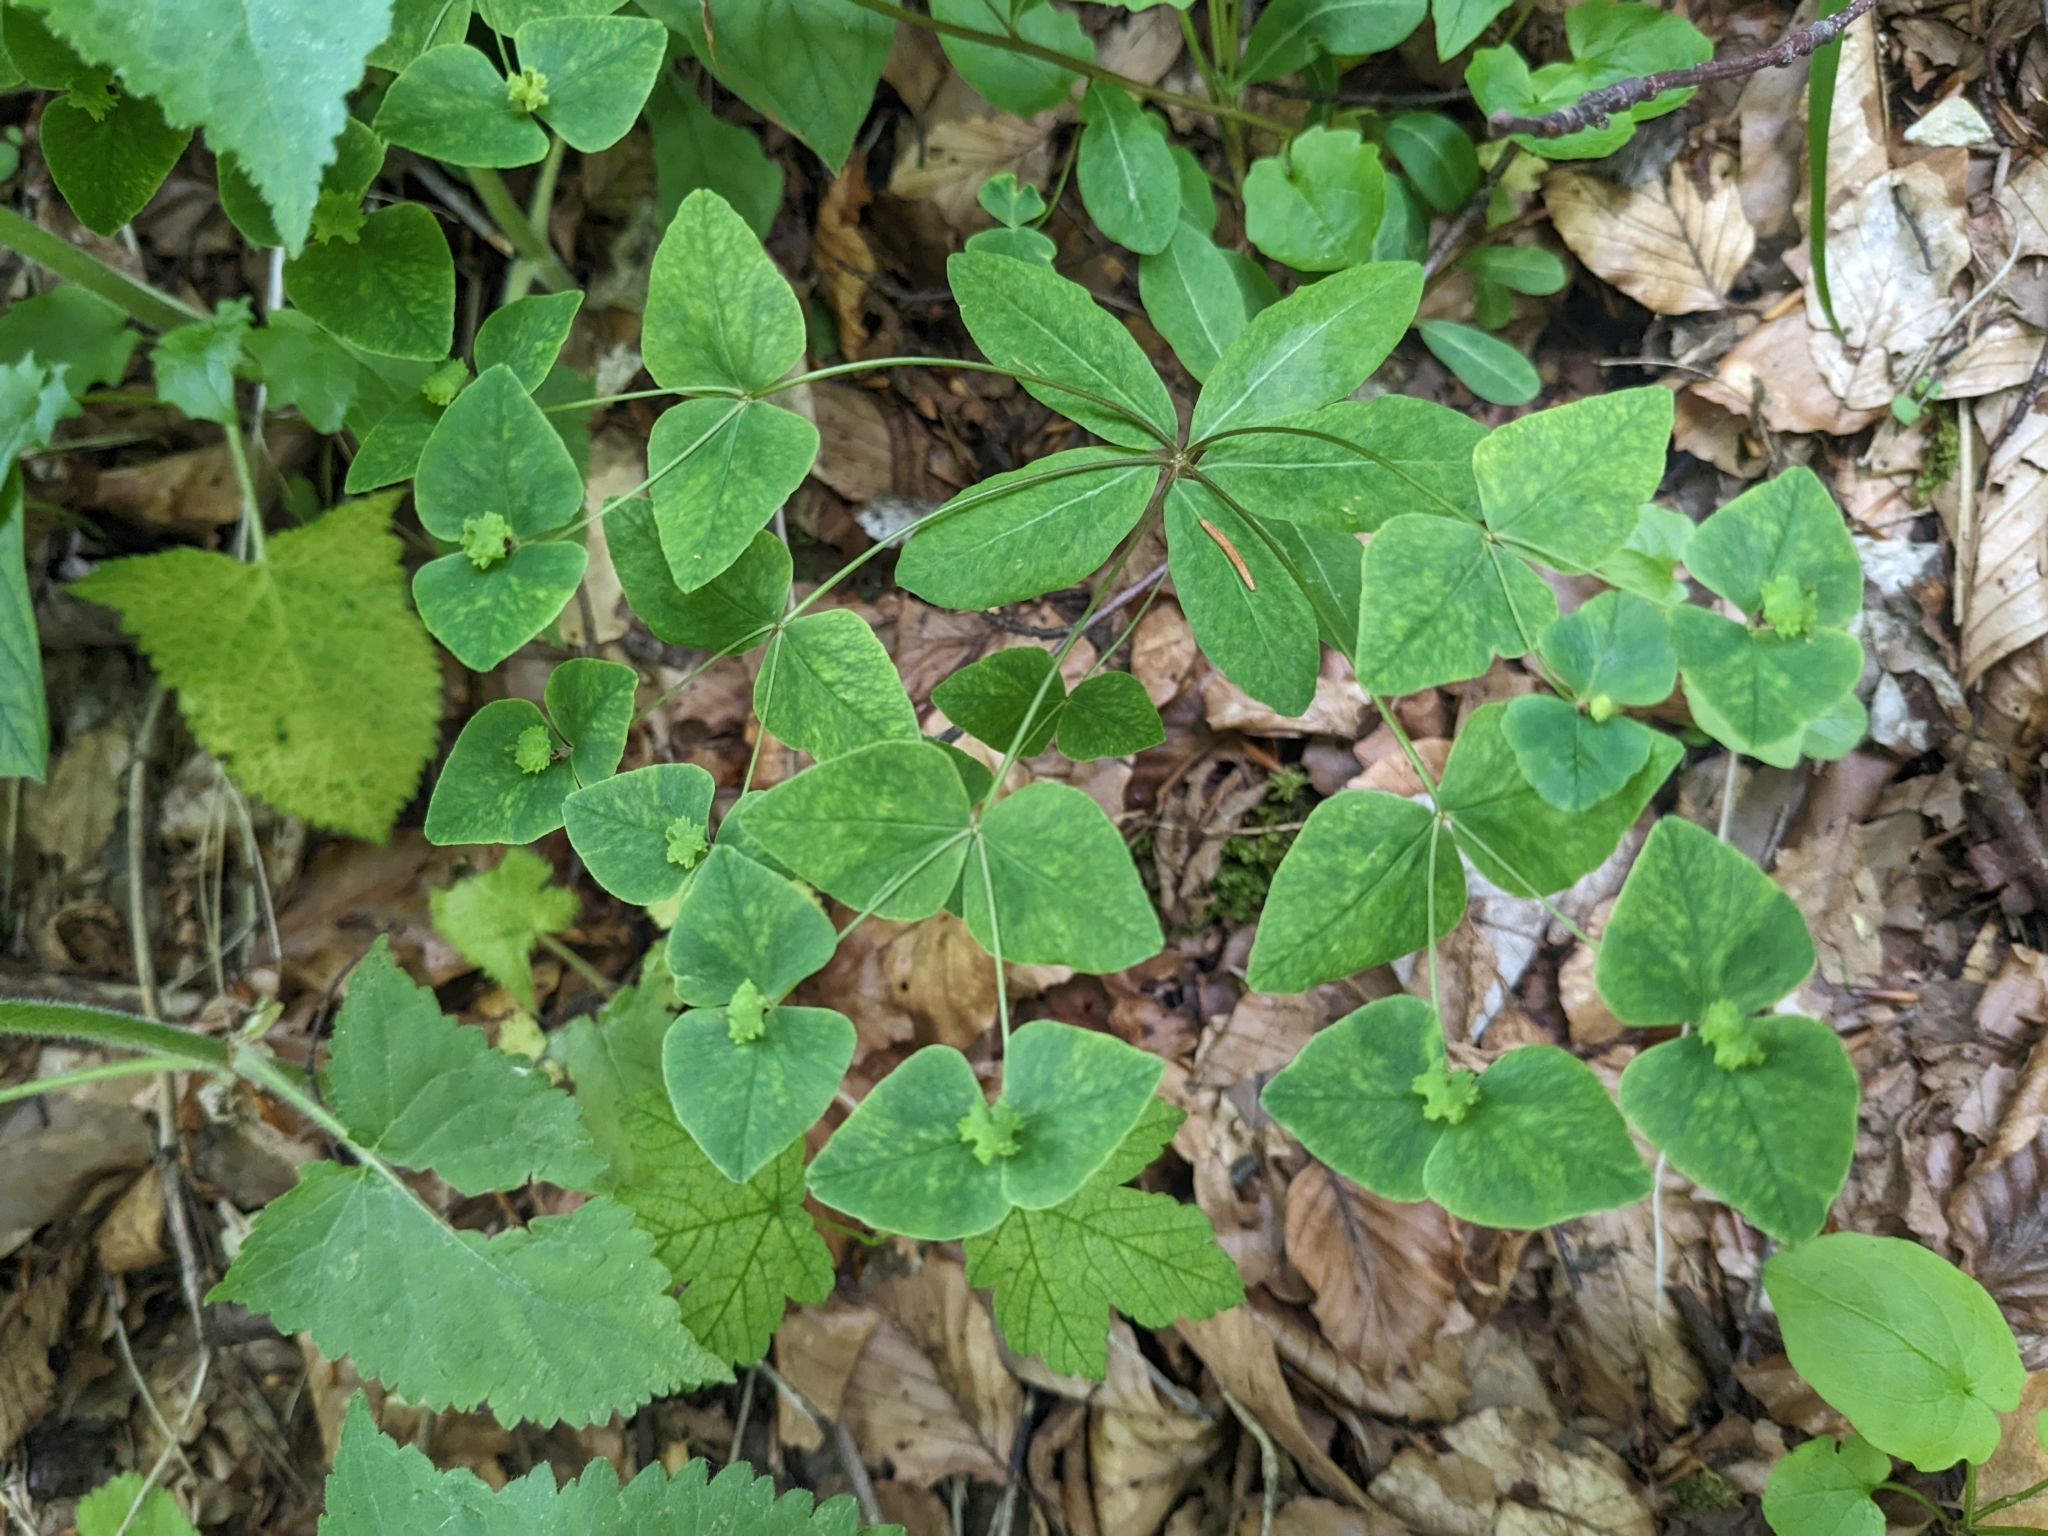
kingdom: Plantae
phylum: Tracheophyta
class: Magnoliopsida
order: Malpighiales
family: Euphorbiaceae
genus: Euphorbia
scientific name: Euphorbia dulcis
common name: Sweet spurge
